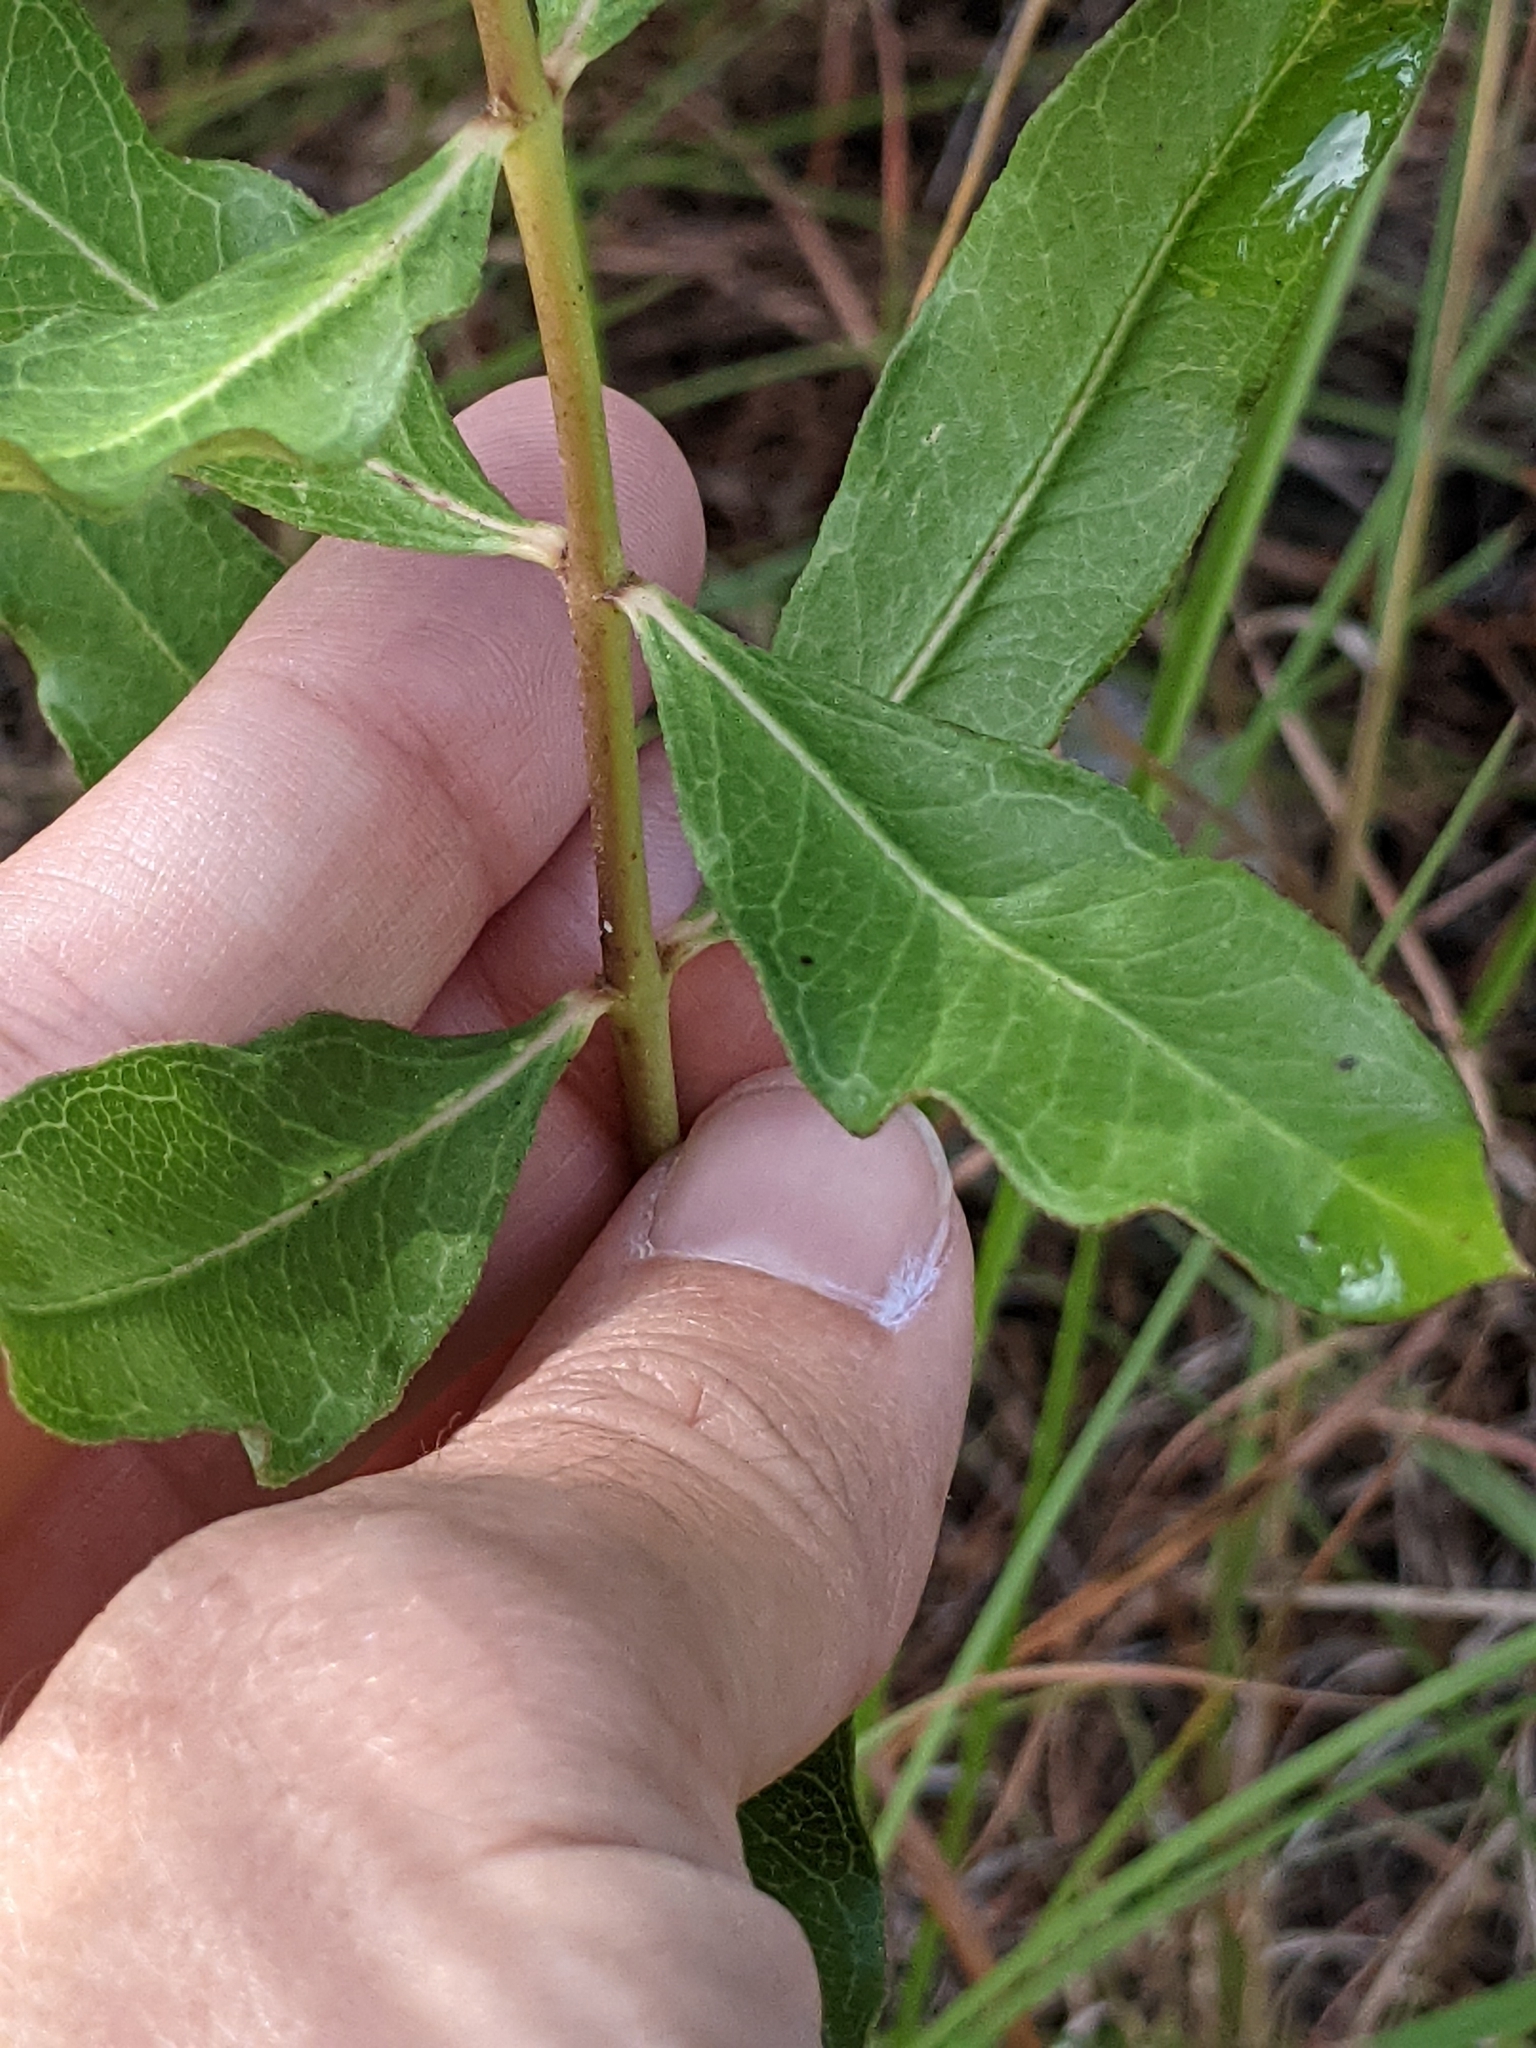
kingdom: Plantae
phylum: Tracheophyta
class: Magnoliopsida
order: Gentianales
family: Apocynaceae
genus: Asclepias
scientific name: Asclepias viridiflora
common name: Green comet milkweed
